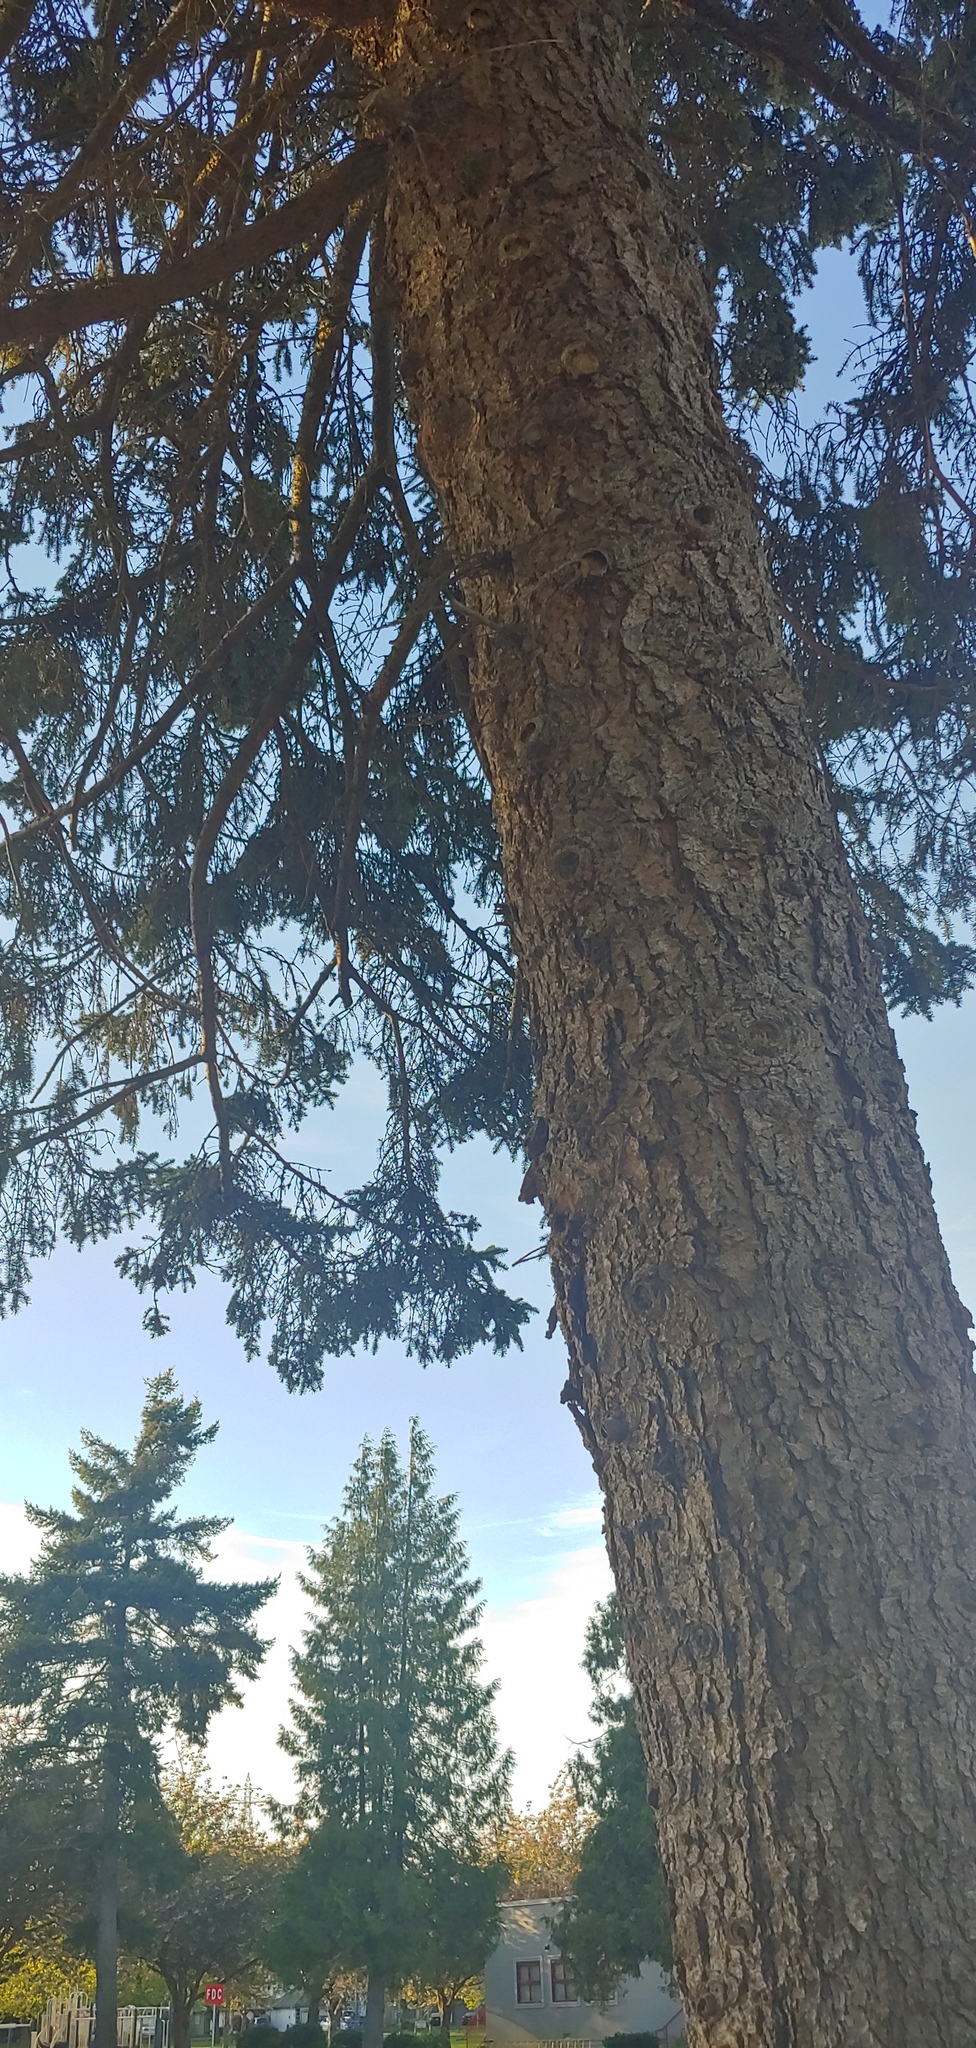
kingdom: Plantae
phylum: Tracheophyta
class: Pinopsida
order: Pinales
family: Pinaceae
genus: Pseudotsuga
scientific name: Pseudotsuga menziesii
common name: Douglas fir
